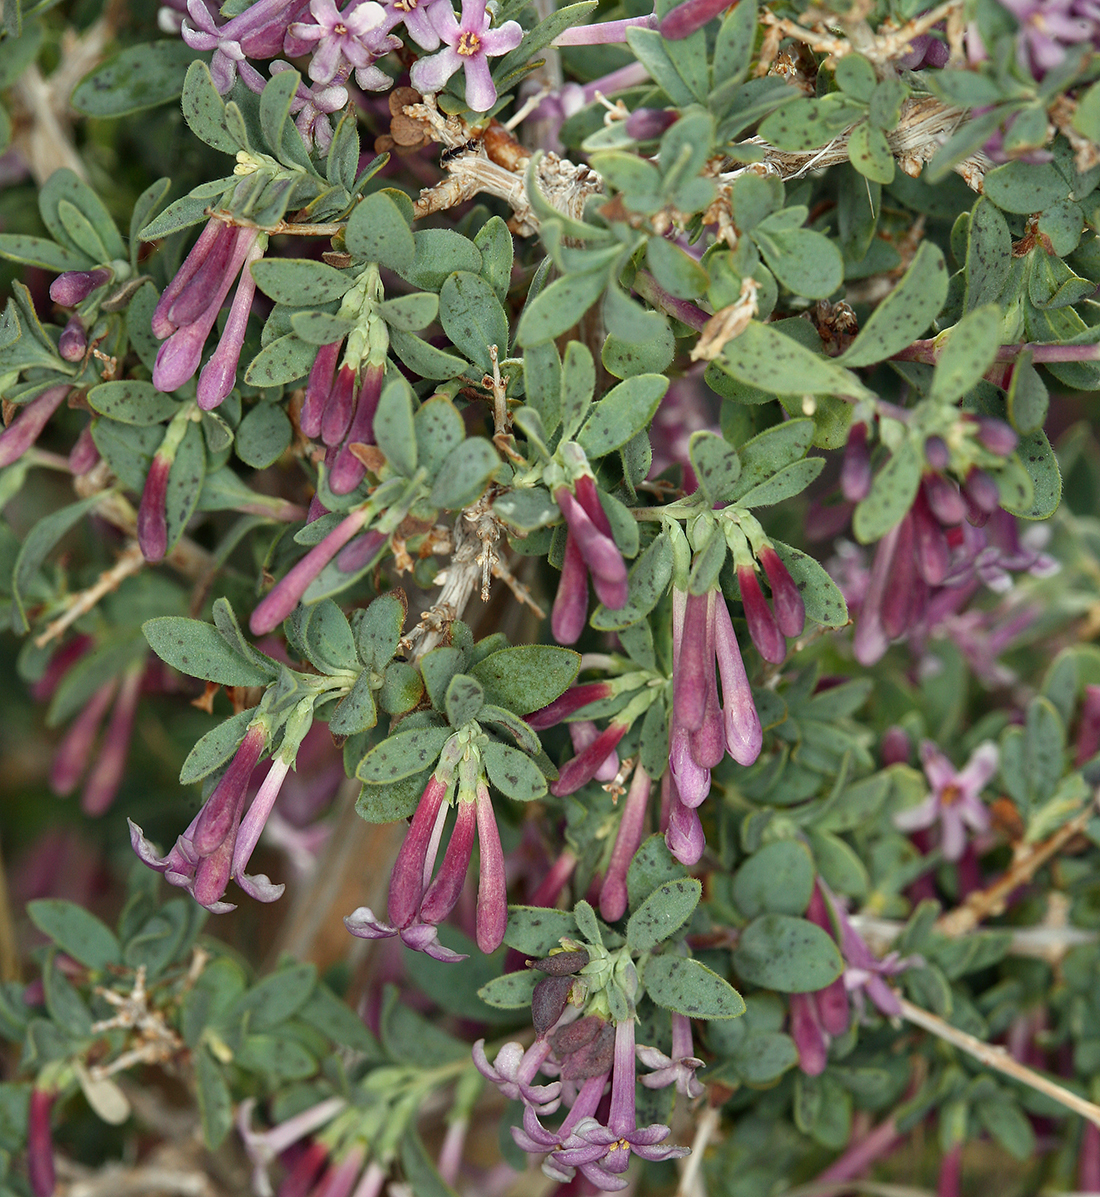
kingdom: Plantae
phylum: Tracheophyta
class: Magnoliopsida
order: Dipsacales
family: Caprifoliaceae
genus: Symphoricarpos
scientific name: Symphoricarpos longiflorus
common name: Fragrant snowberry
